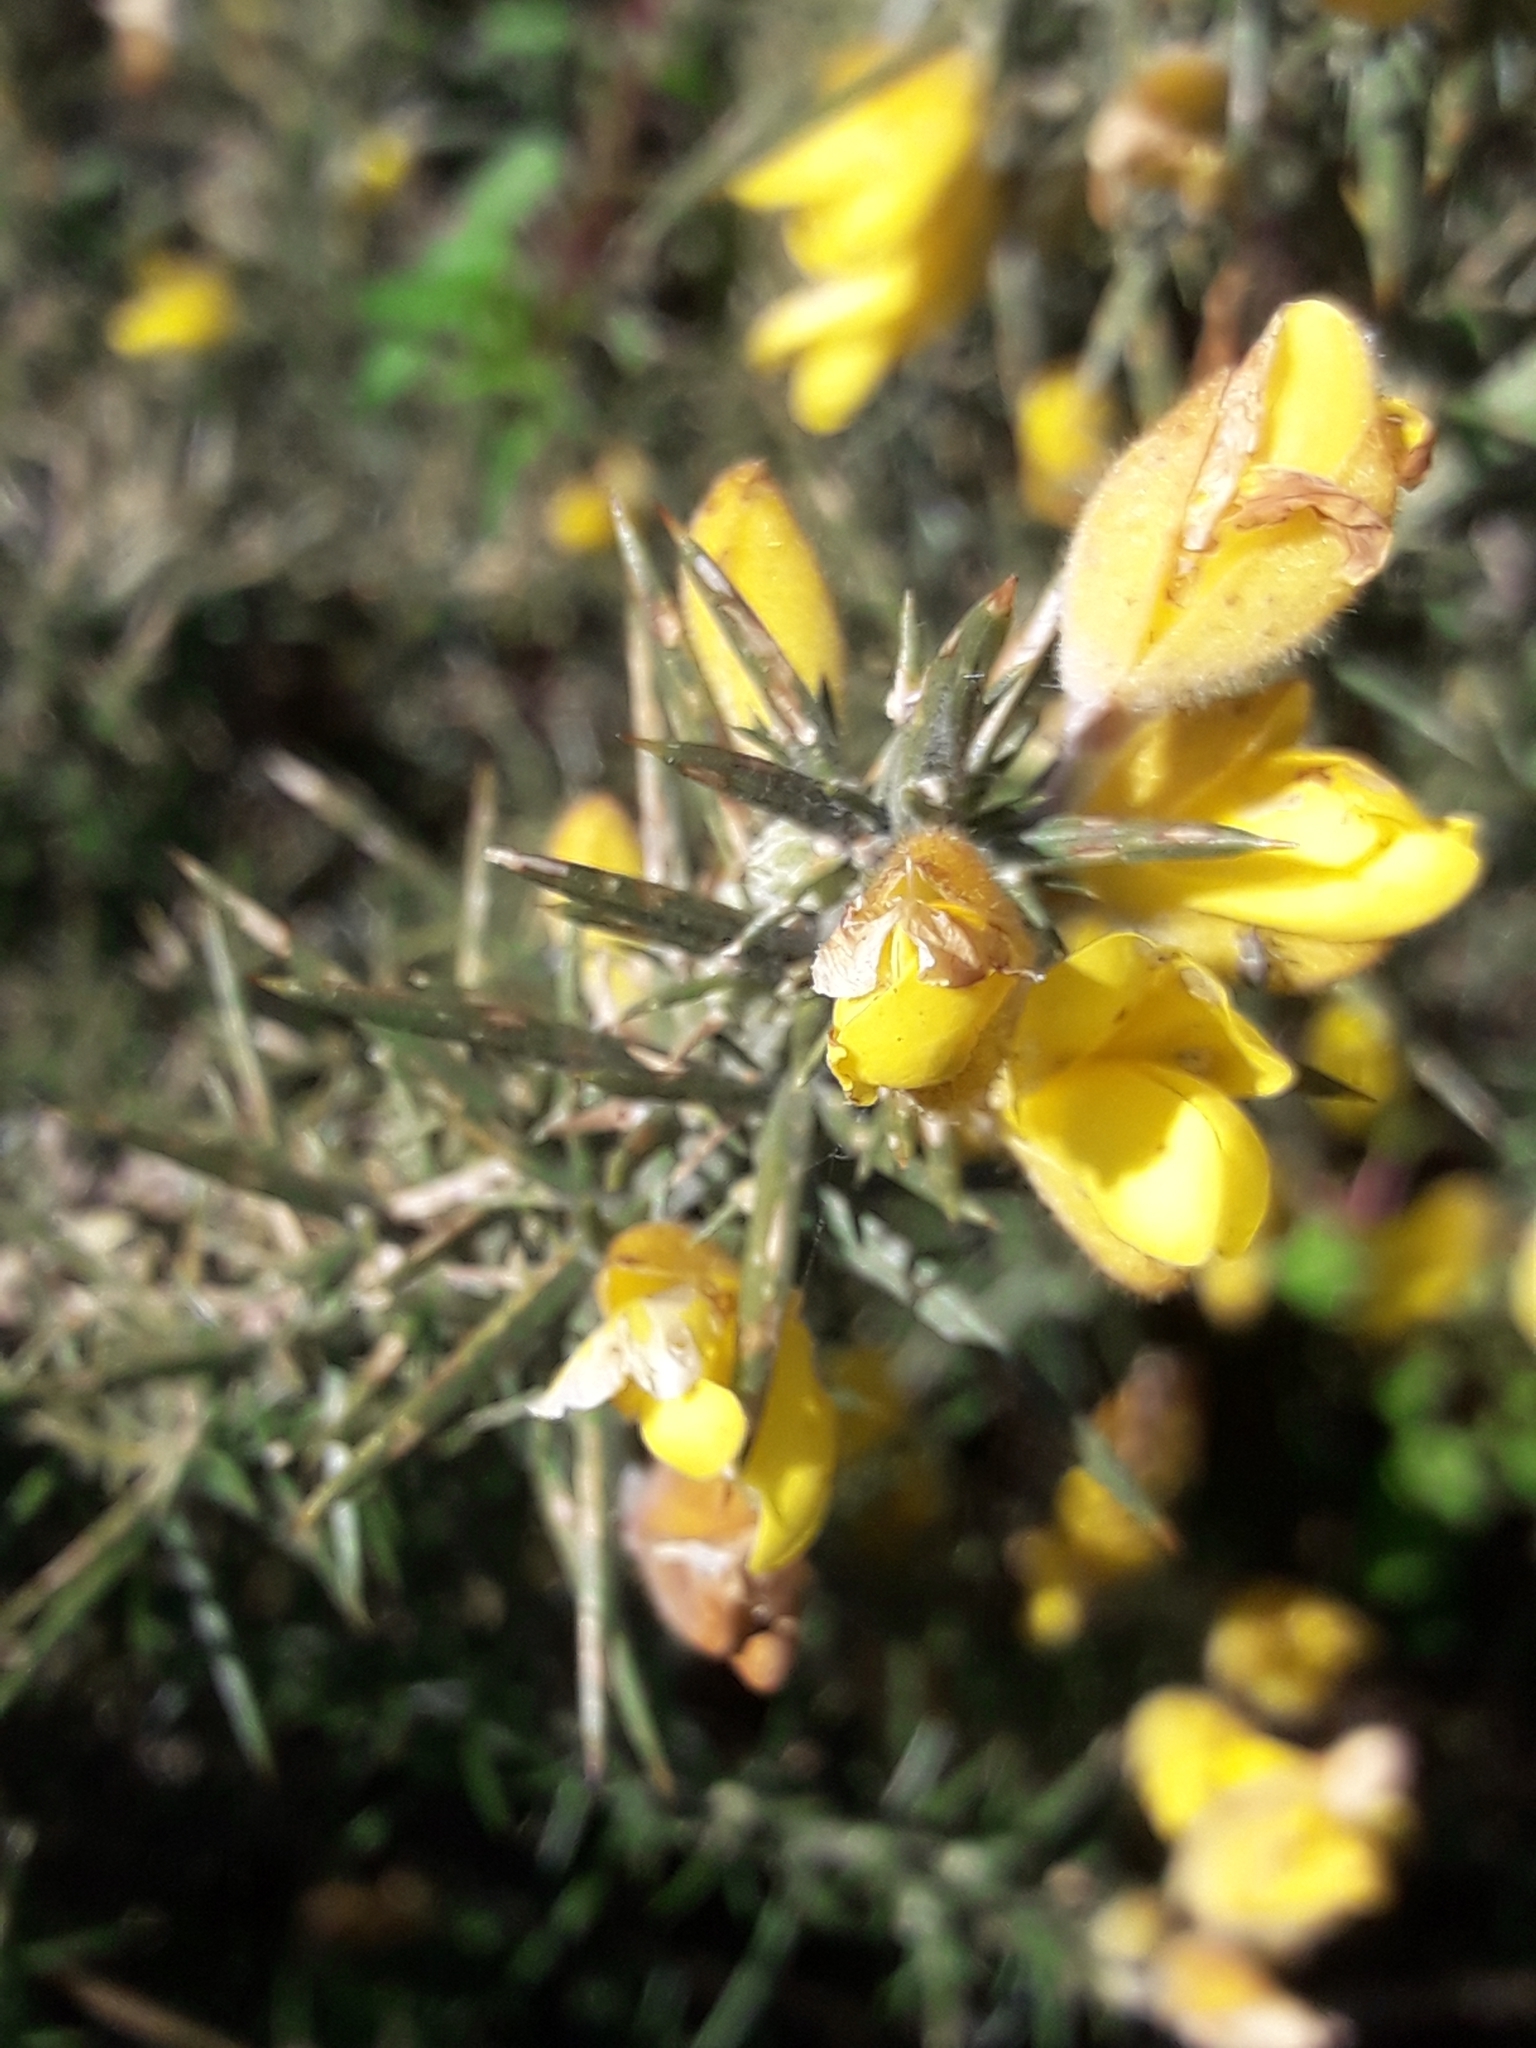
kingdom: Plantae
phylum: Tracheophyta
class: Magnoliopsida
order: Fabales
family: Fabaceae
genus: Ulex
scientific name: Ulex europaeus
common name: Common gorse
